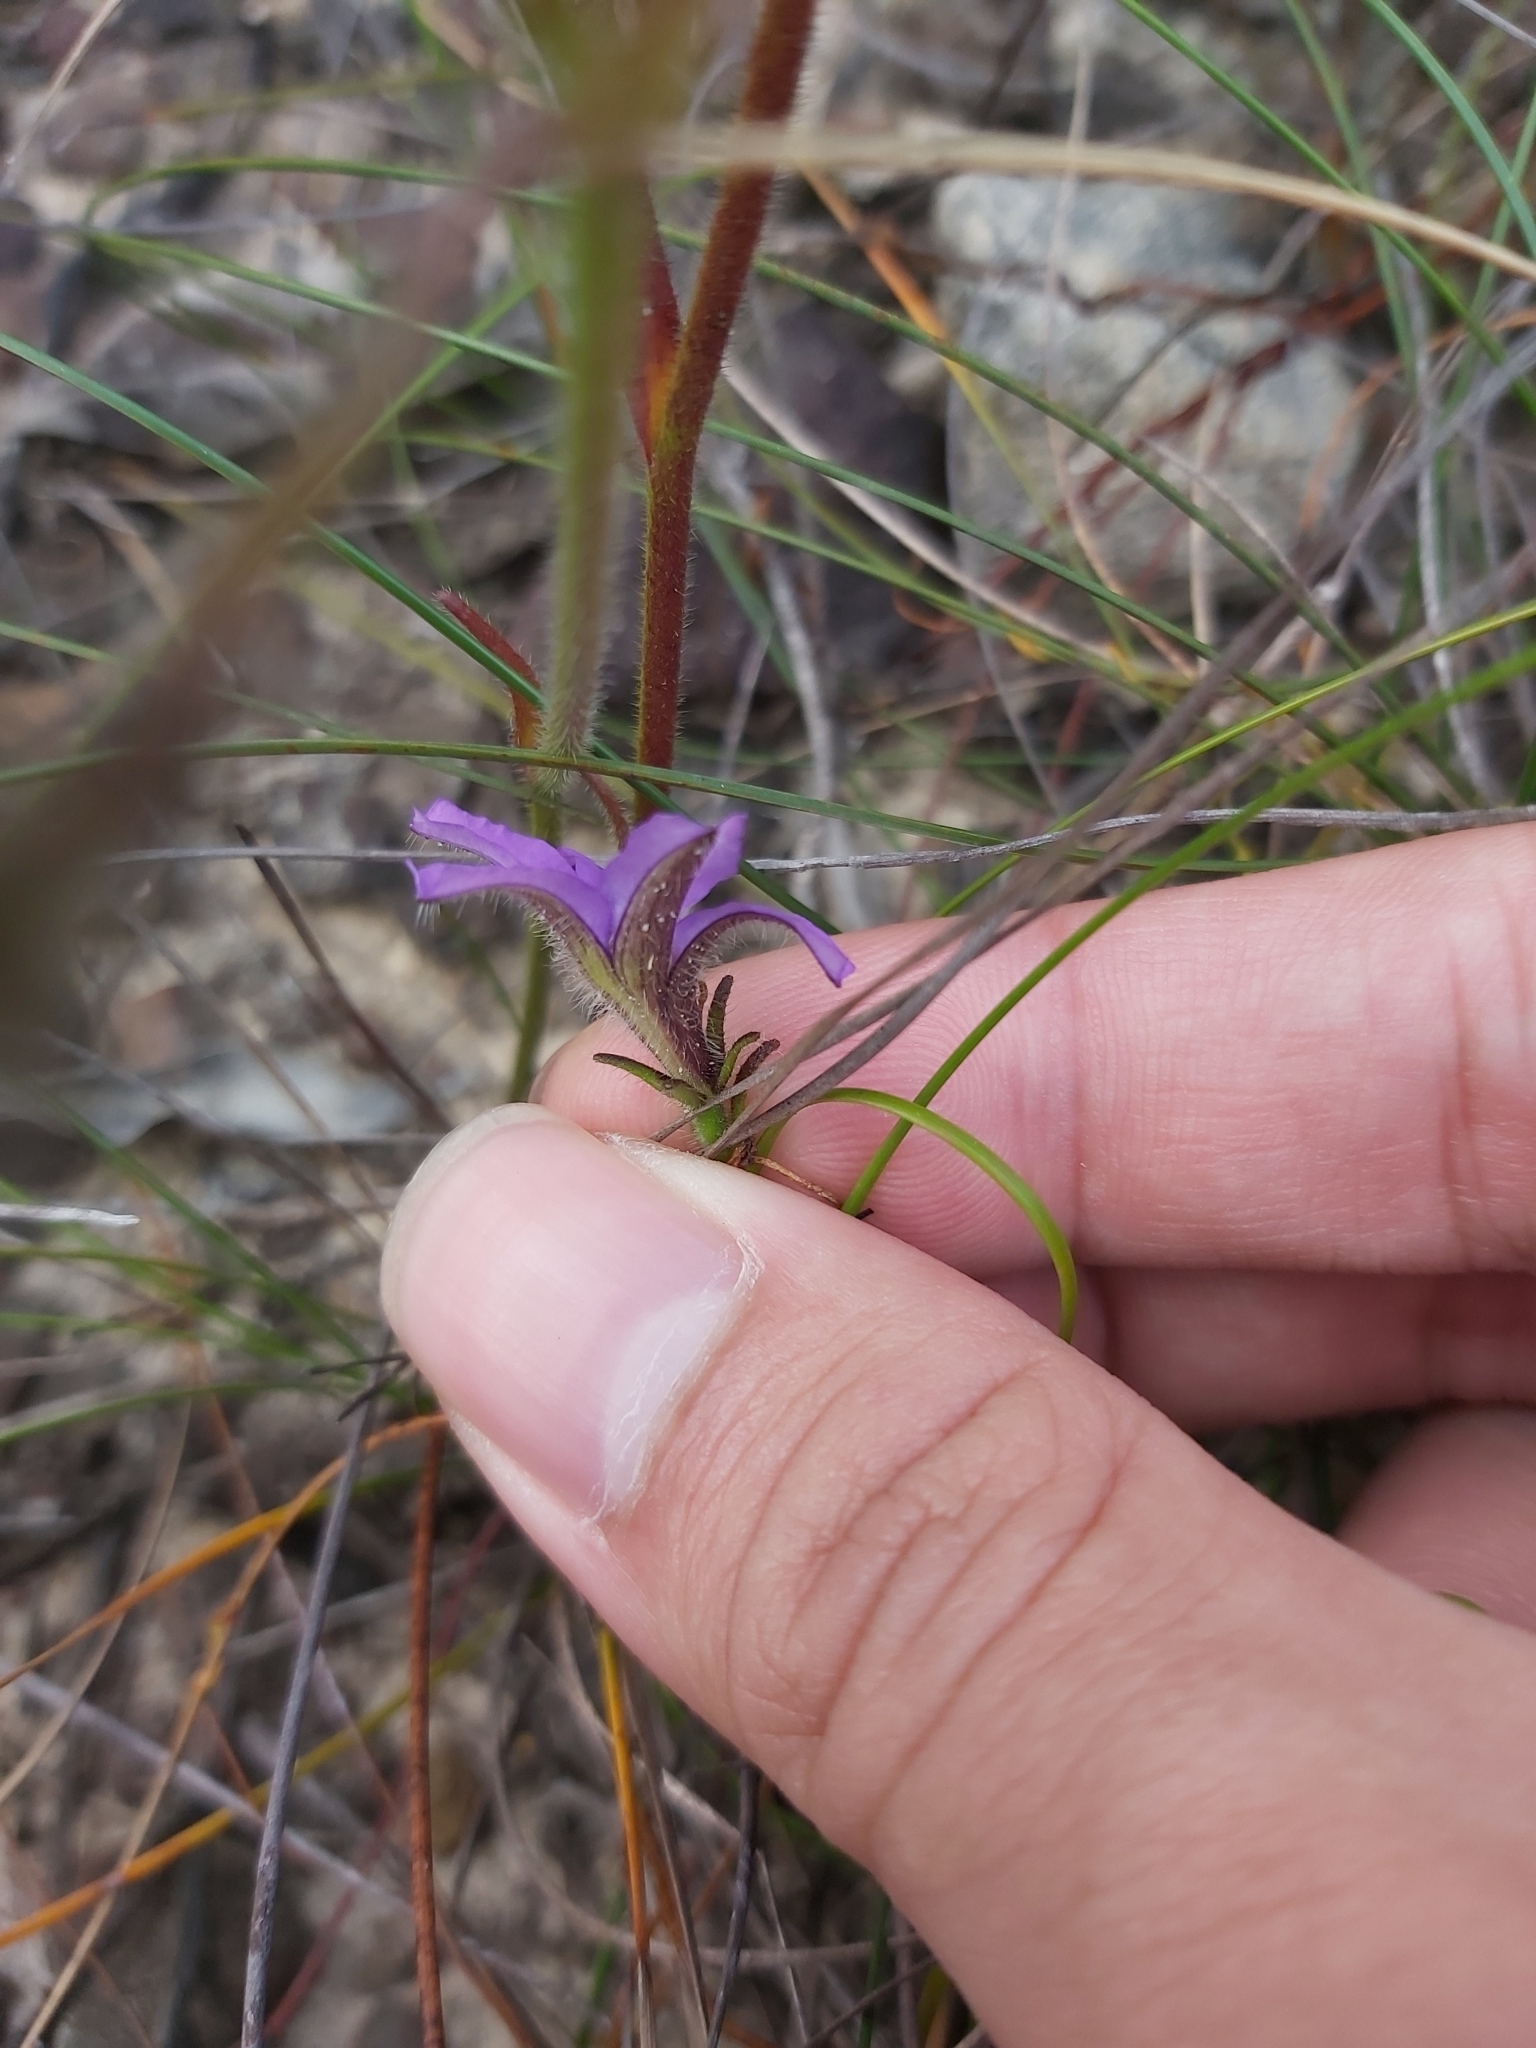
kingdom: Plantae
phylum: Tracheophyta
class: Magnoliopsida
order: Asterales
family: Goodeniaceae
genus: Scaevola
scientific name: Scaevola ramosissima
